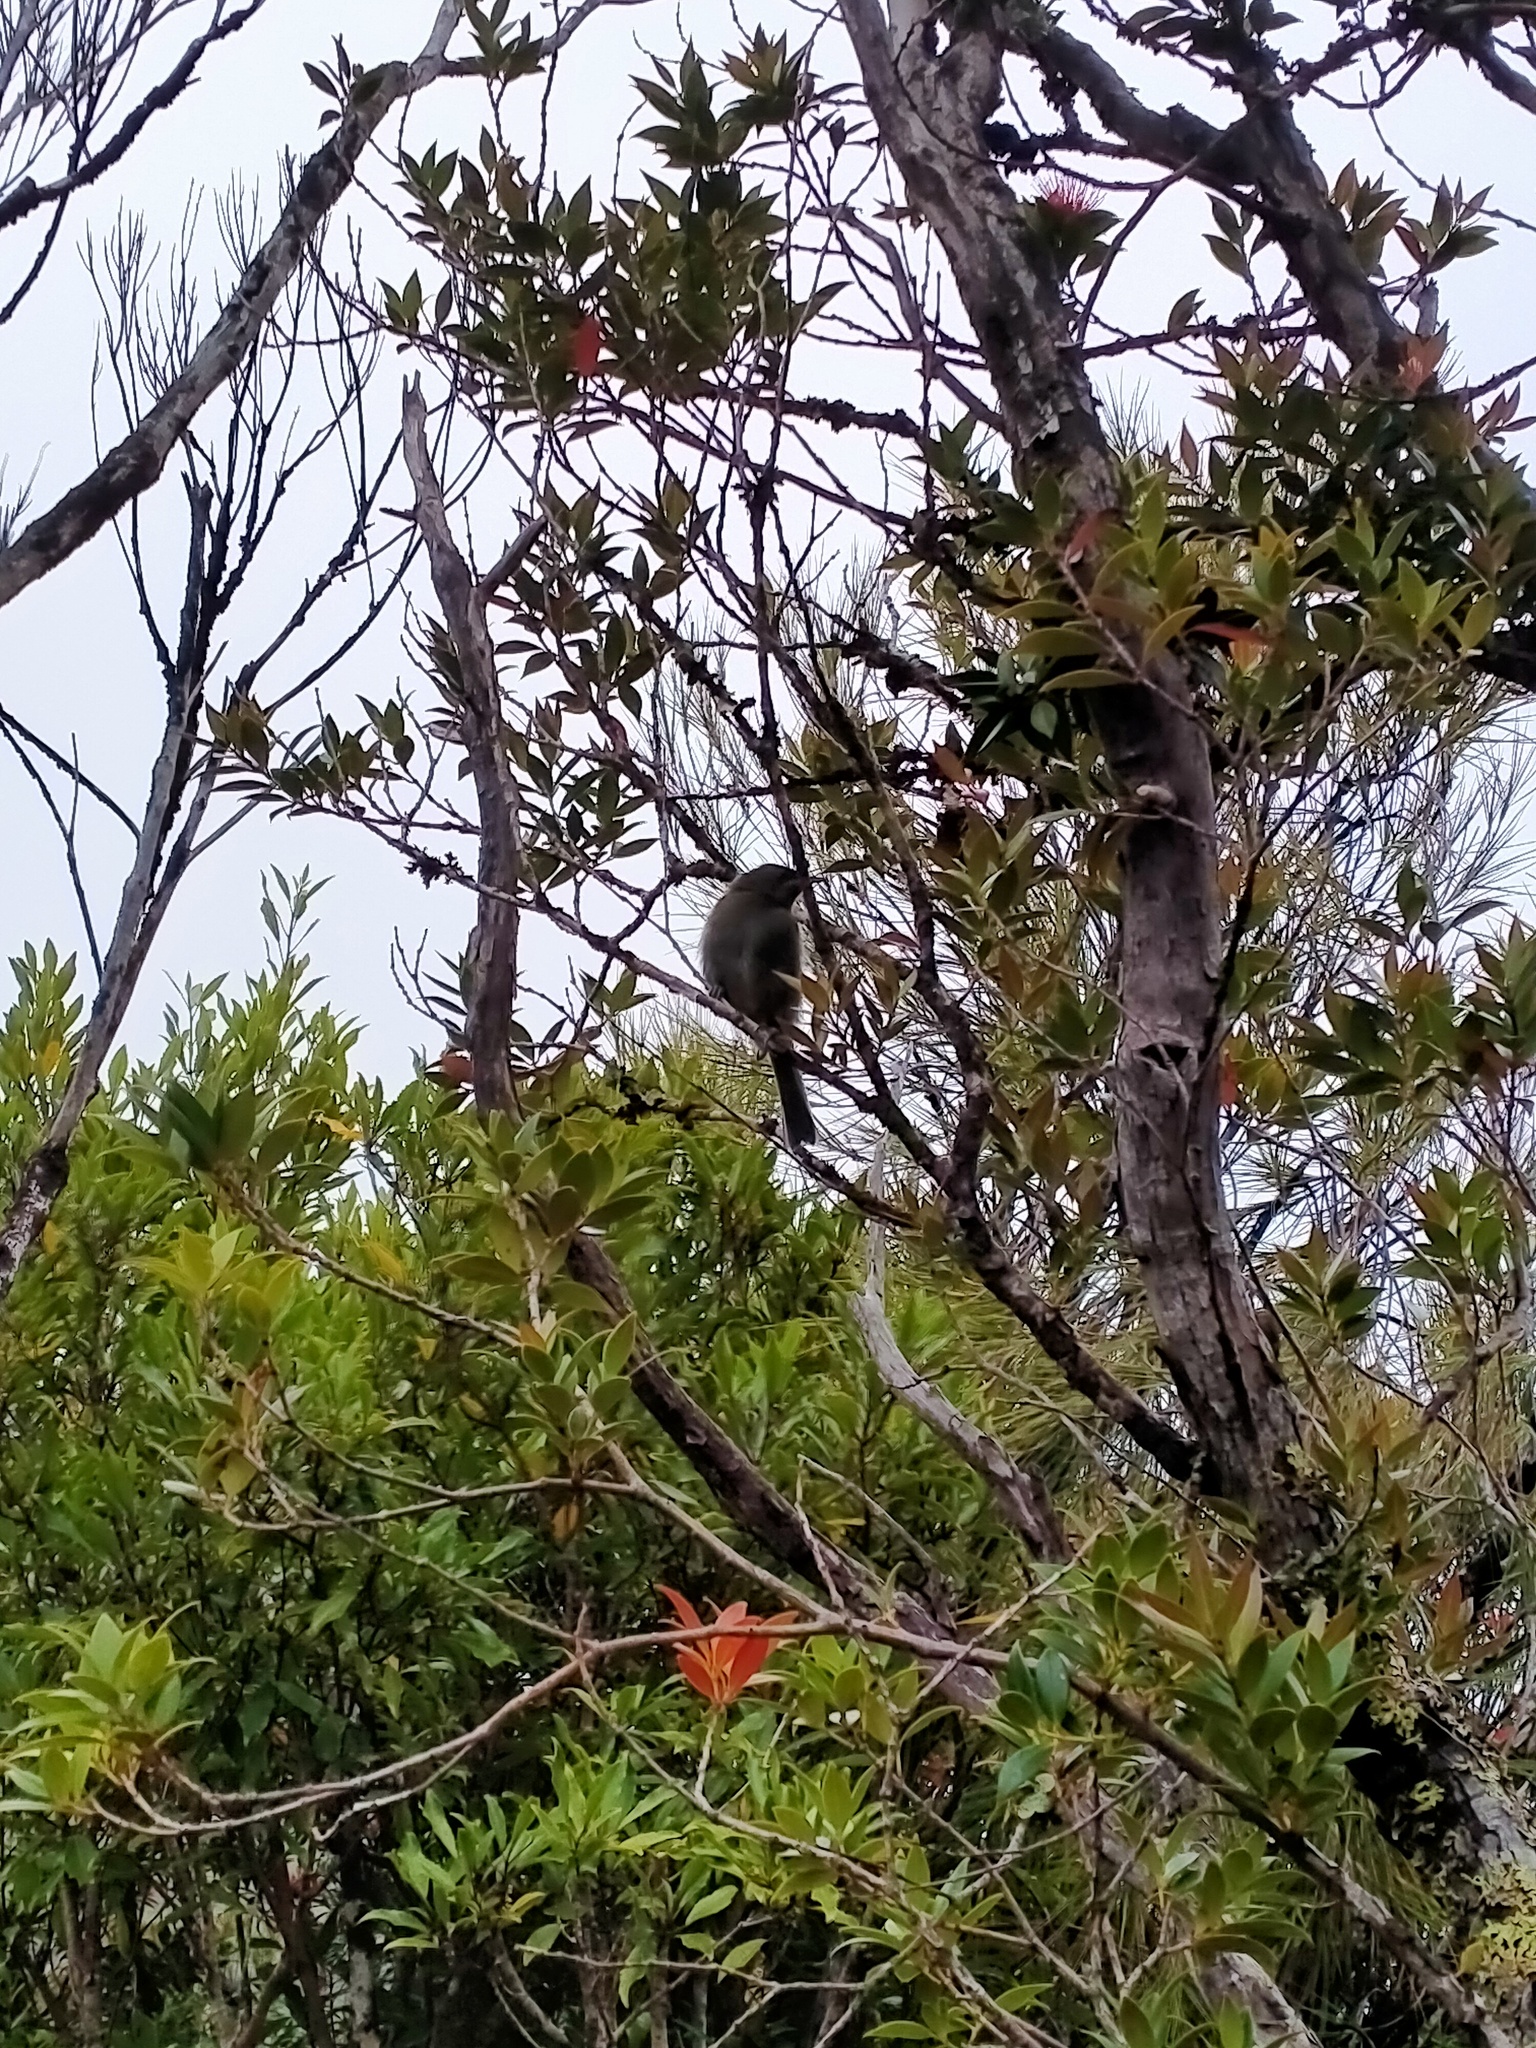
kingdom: Animalia
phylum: Chordata
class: Aves
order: Passeriformes
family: Meliphagidae
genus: Anthornis
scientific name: Anthornis melanura
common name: New zealand bellbird
